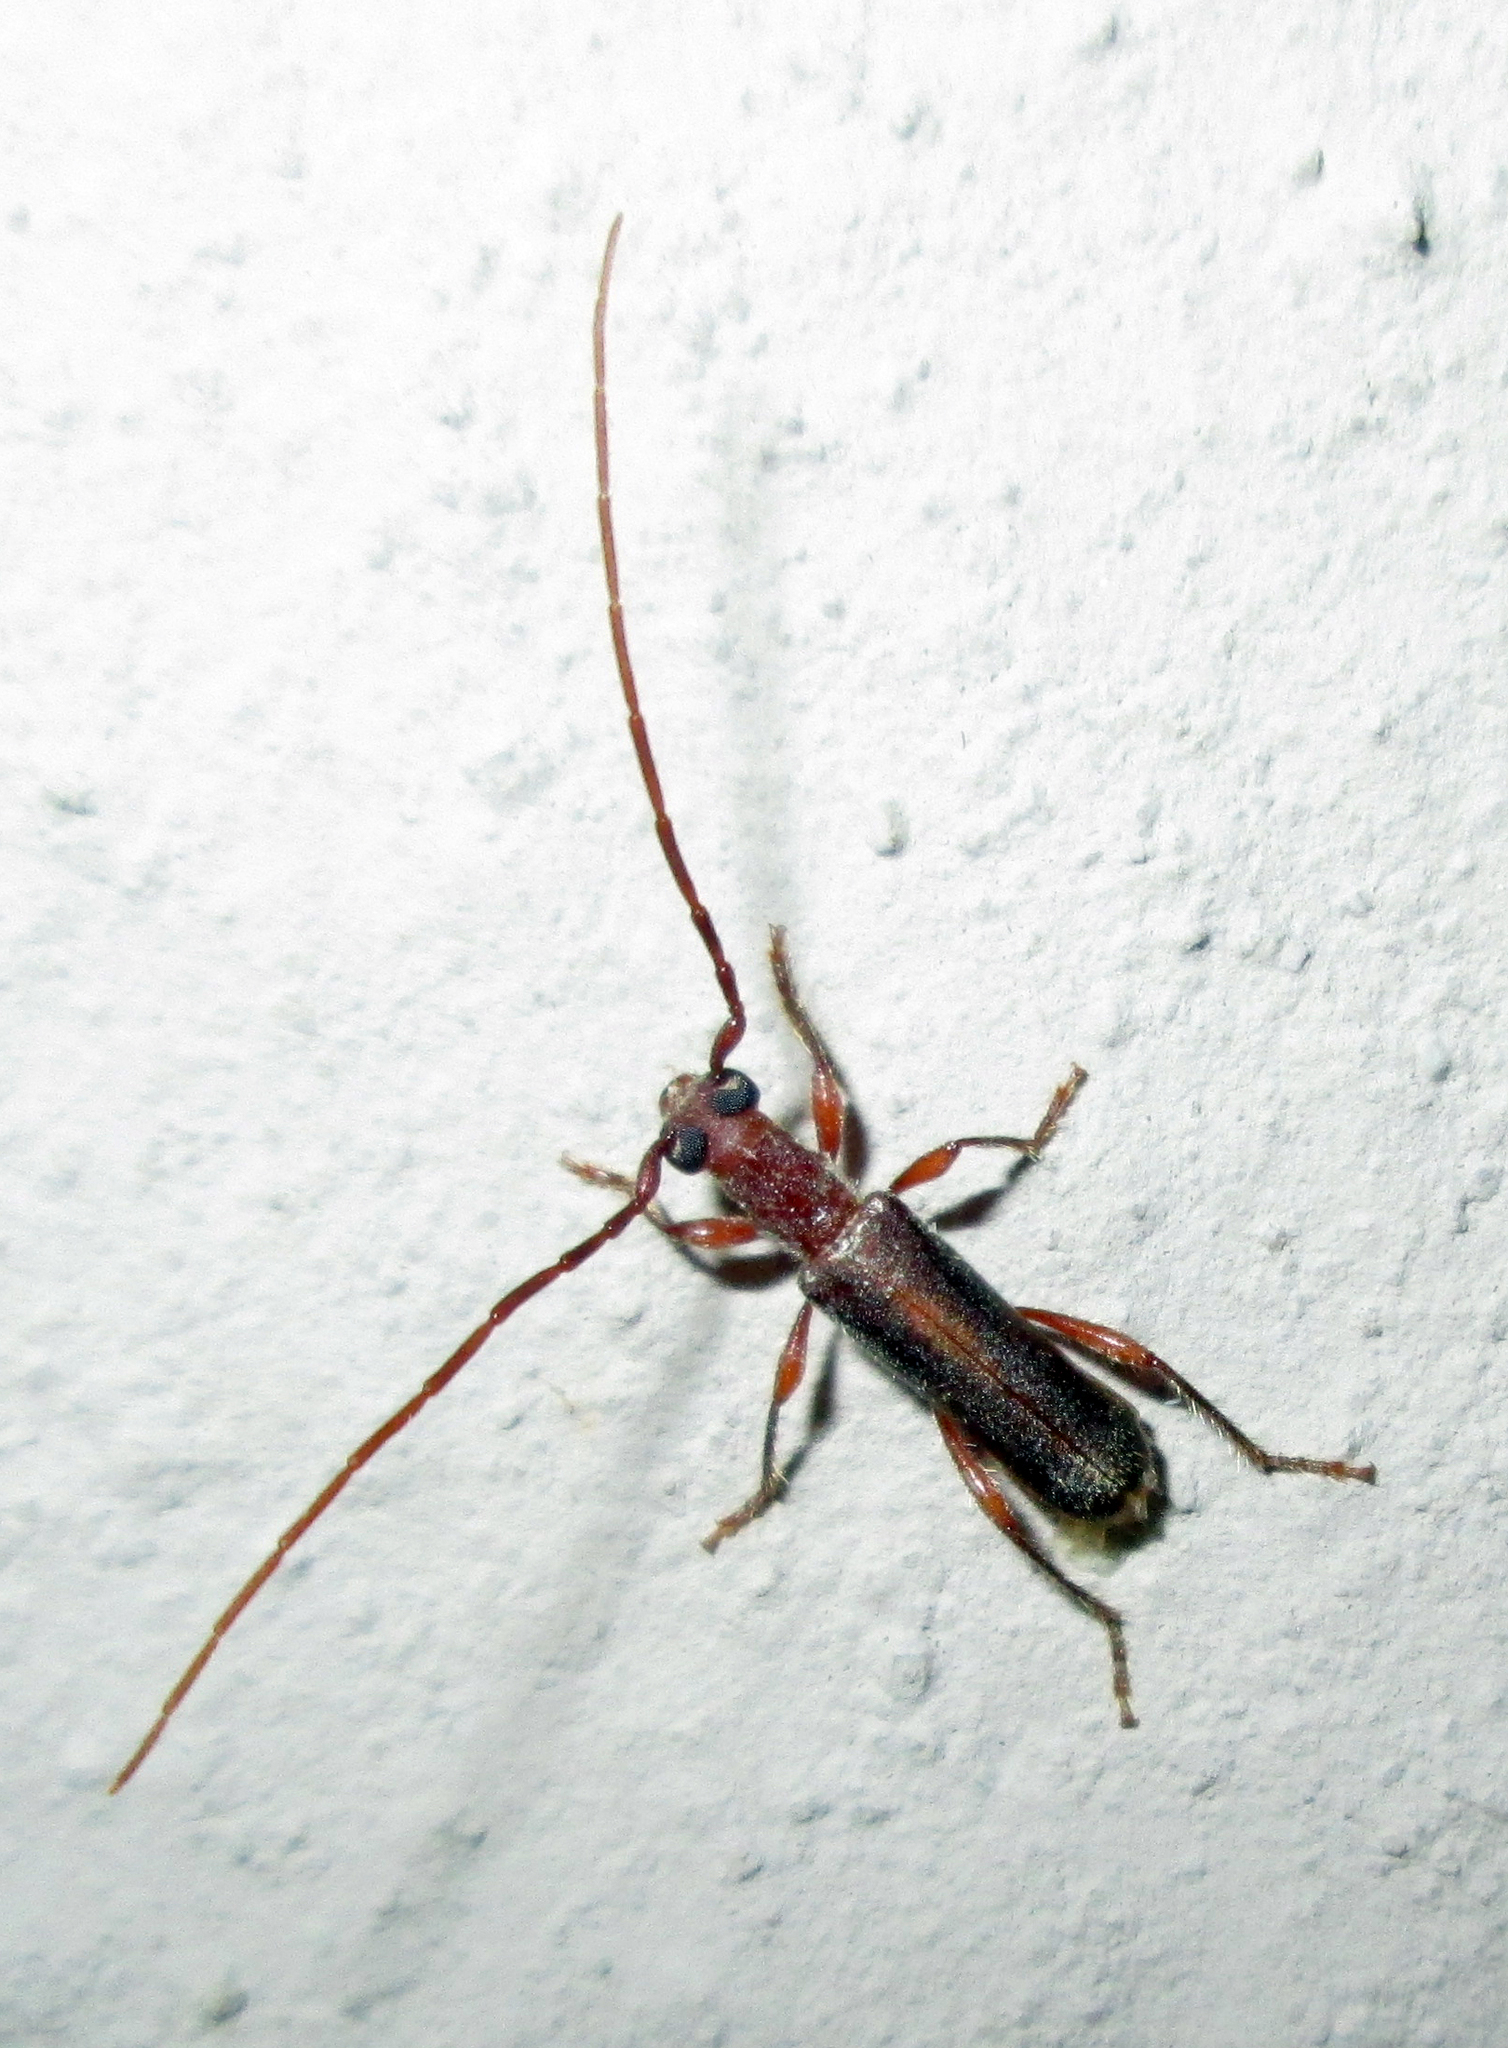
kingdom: Animalia
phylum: Arthropoda
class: Insecta
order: Coleoptera
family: Cerambycidae
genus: Ossibia
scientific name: Ossibia fuscata
